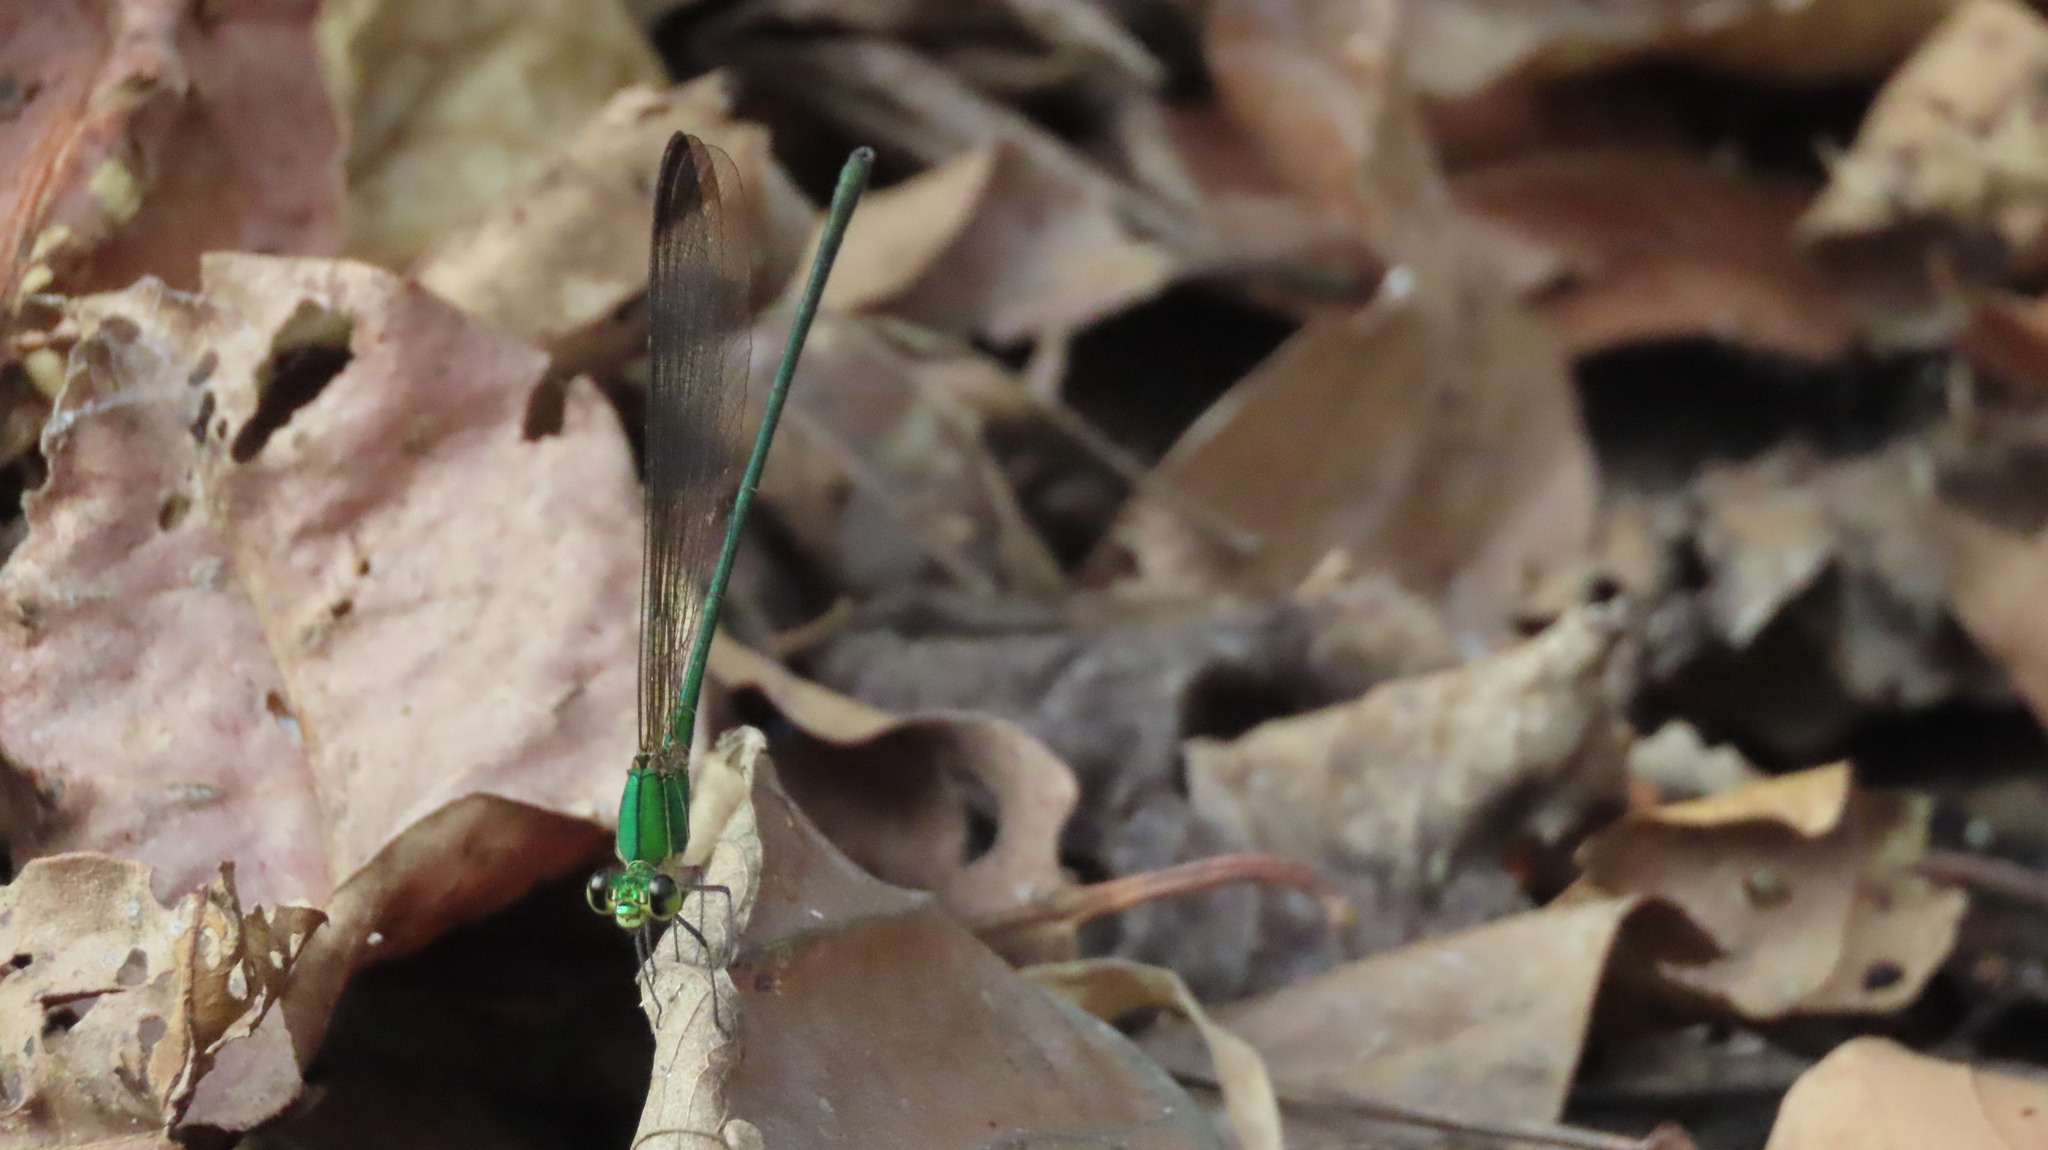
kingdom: Animalia
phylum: Arthropoda
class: Insecta
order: Odonata
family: Calopterygidae
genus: Vestalis
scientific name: Vestalis apicalis
